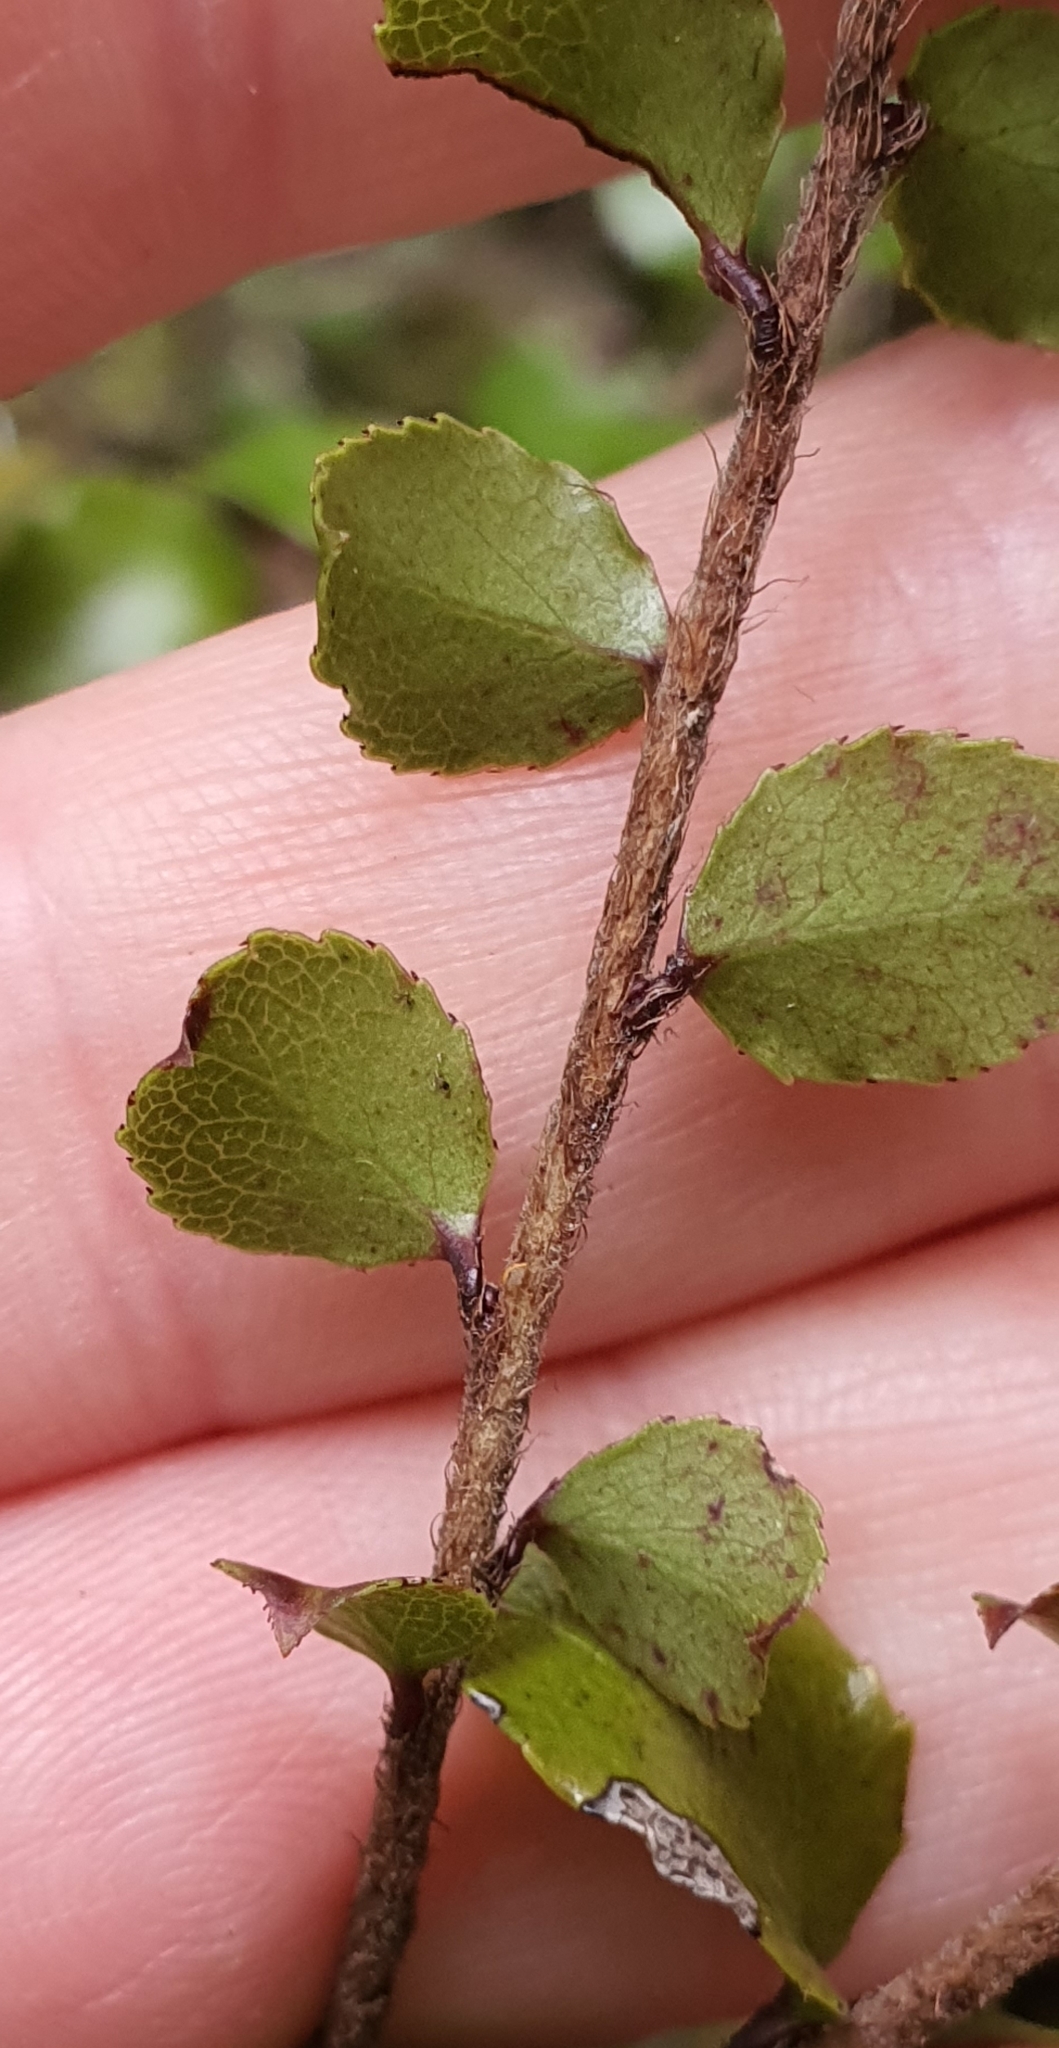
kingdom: Plantae
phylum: Tracheophyta
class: Magnoliopsida
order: Ericales
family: Ericaceae
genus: Gaultheria
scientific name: Gaultheria antipoda
